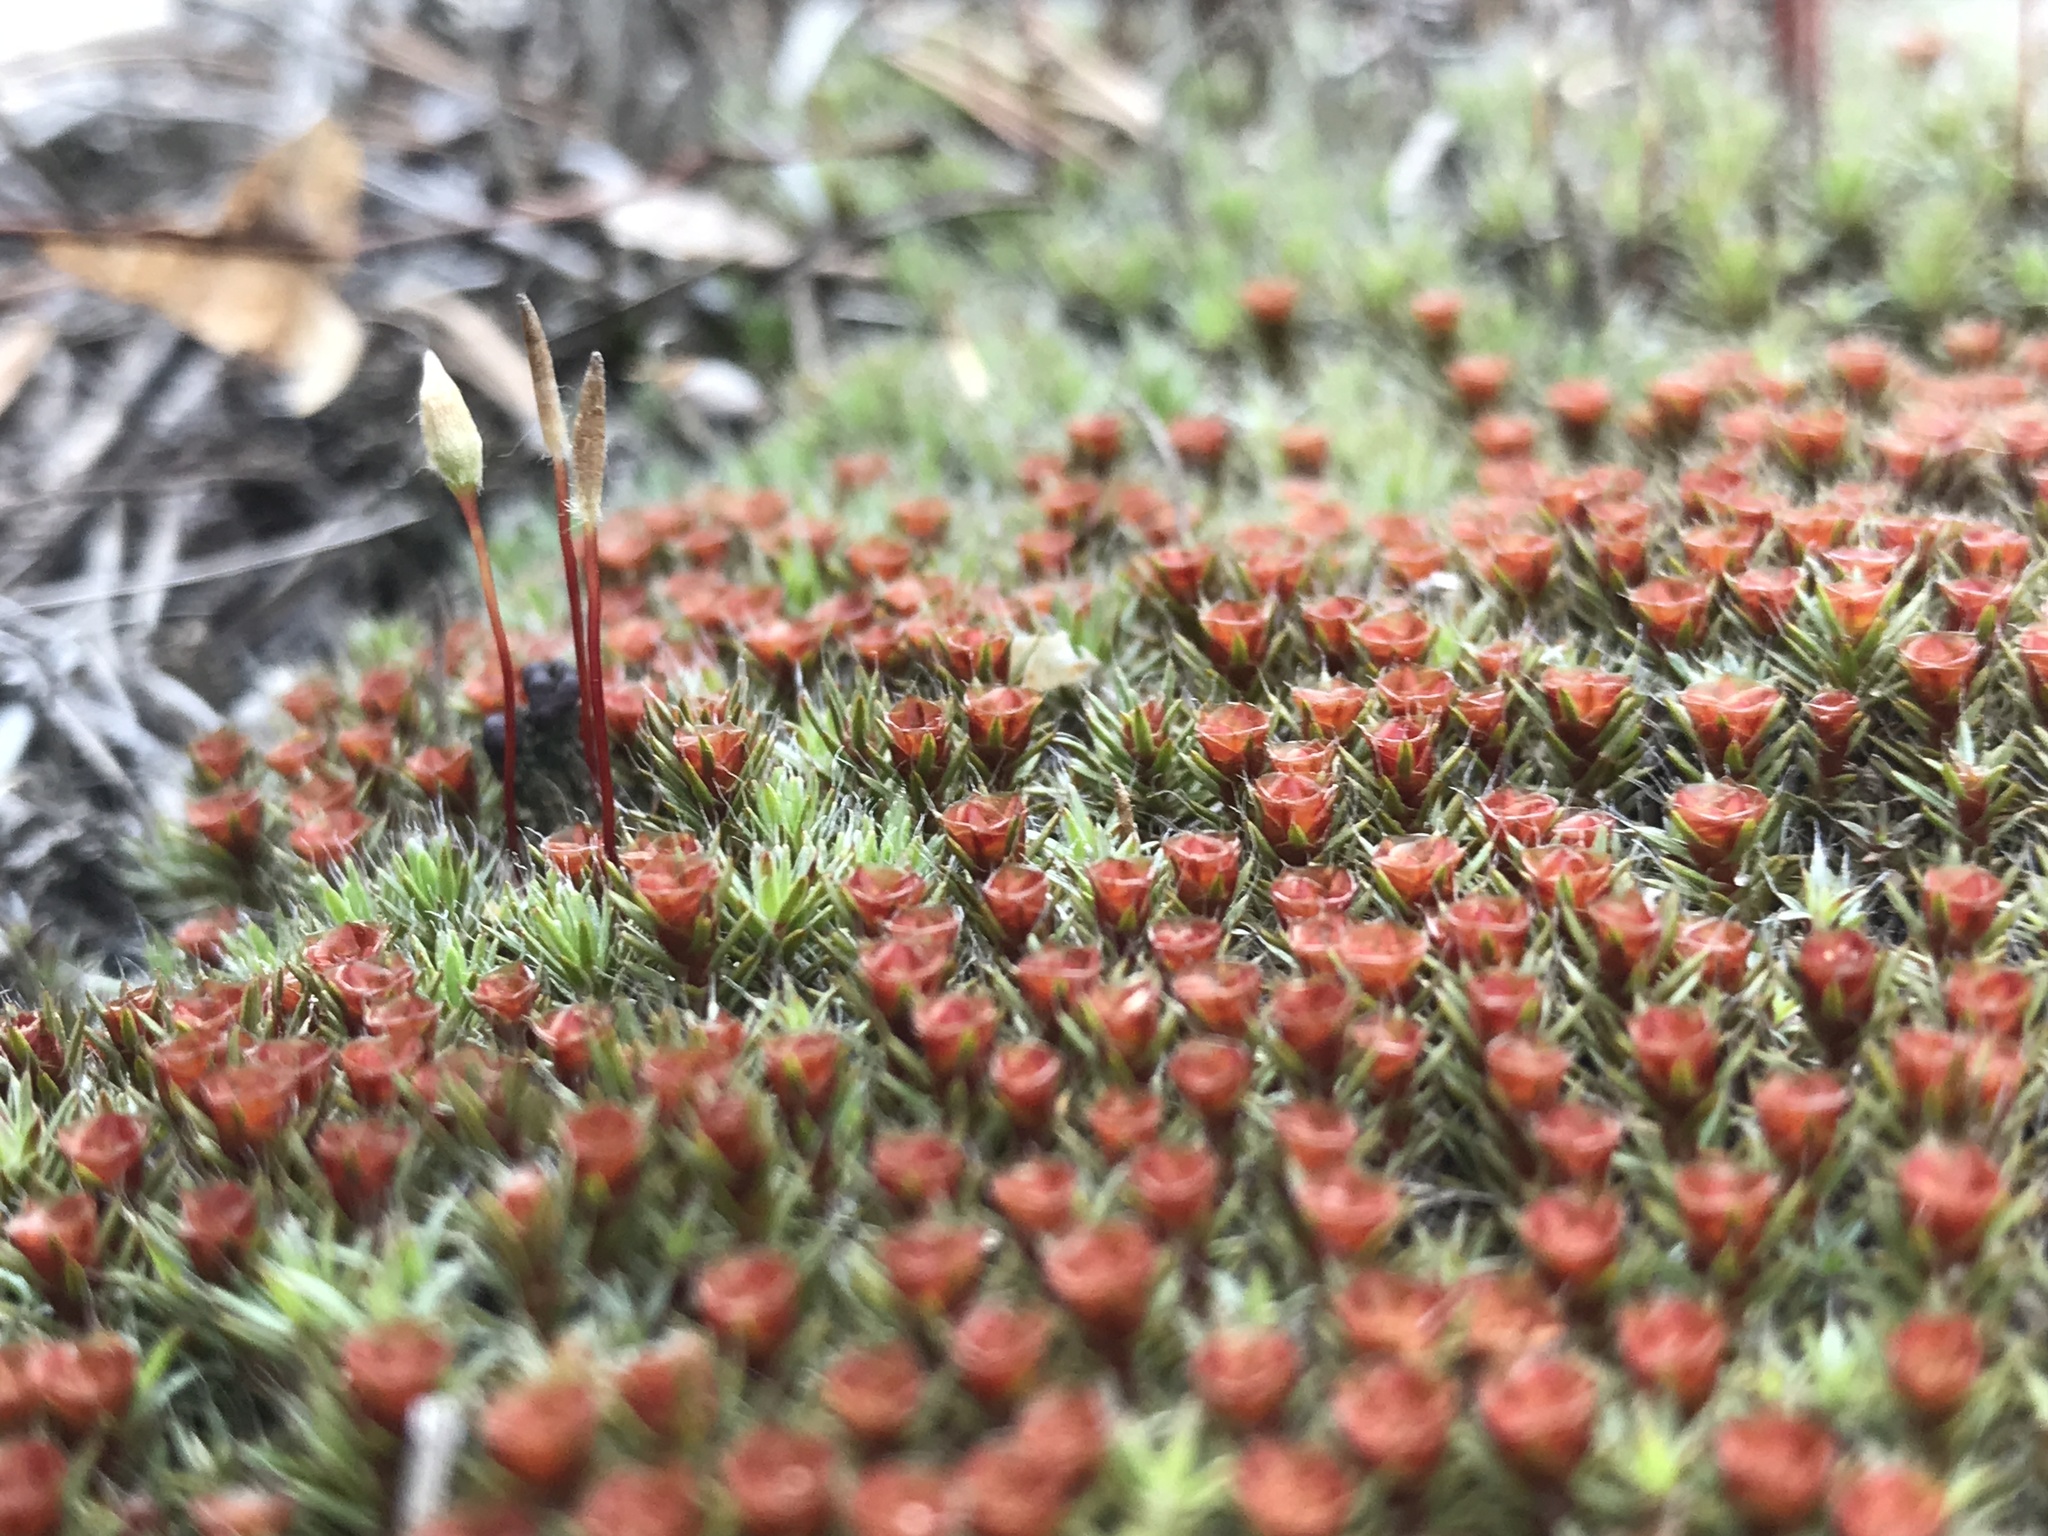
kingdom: Plantae
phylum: Bryophyta
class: Polytrichopsida
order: Polytrichales
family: Polytrichaceae
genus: Polytrichum
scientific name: Polytrichum piliferum
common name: Bristly haircap
